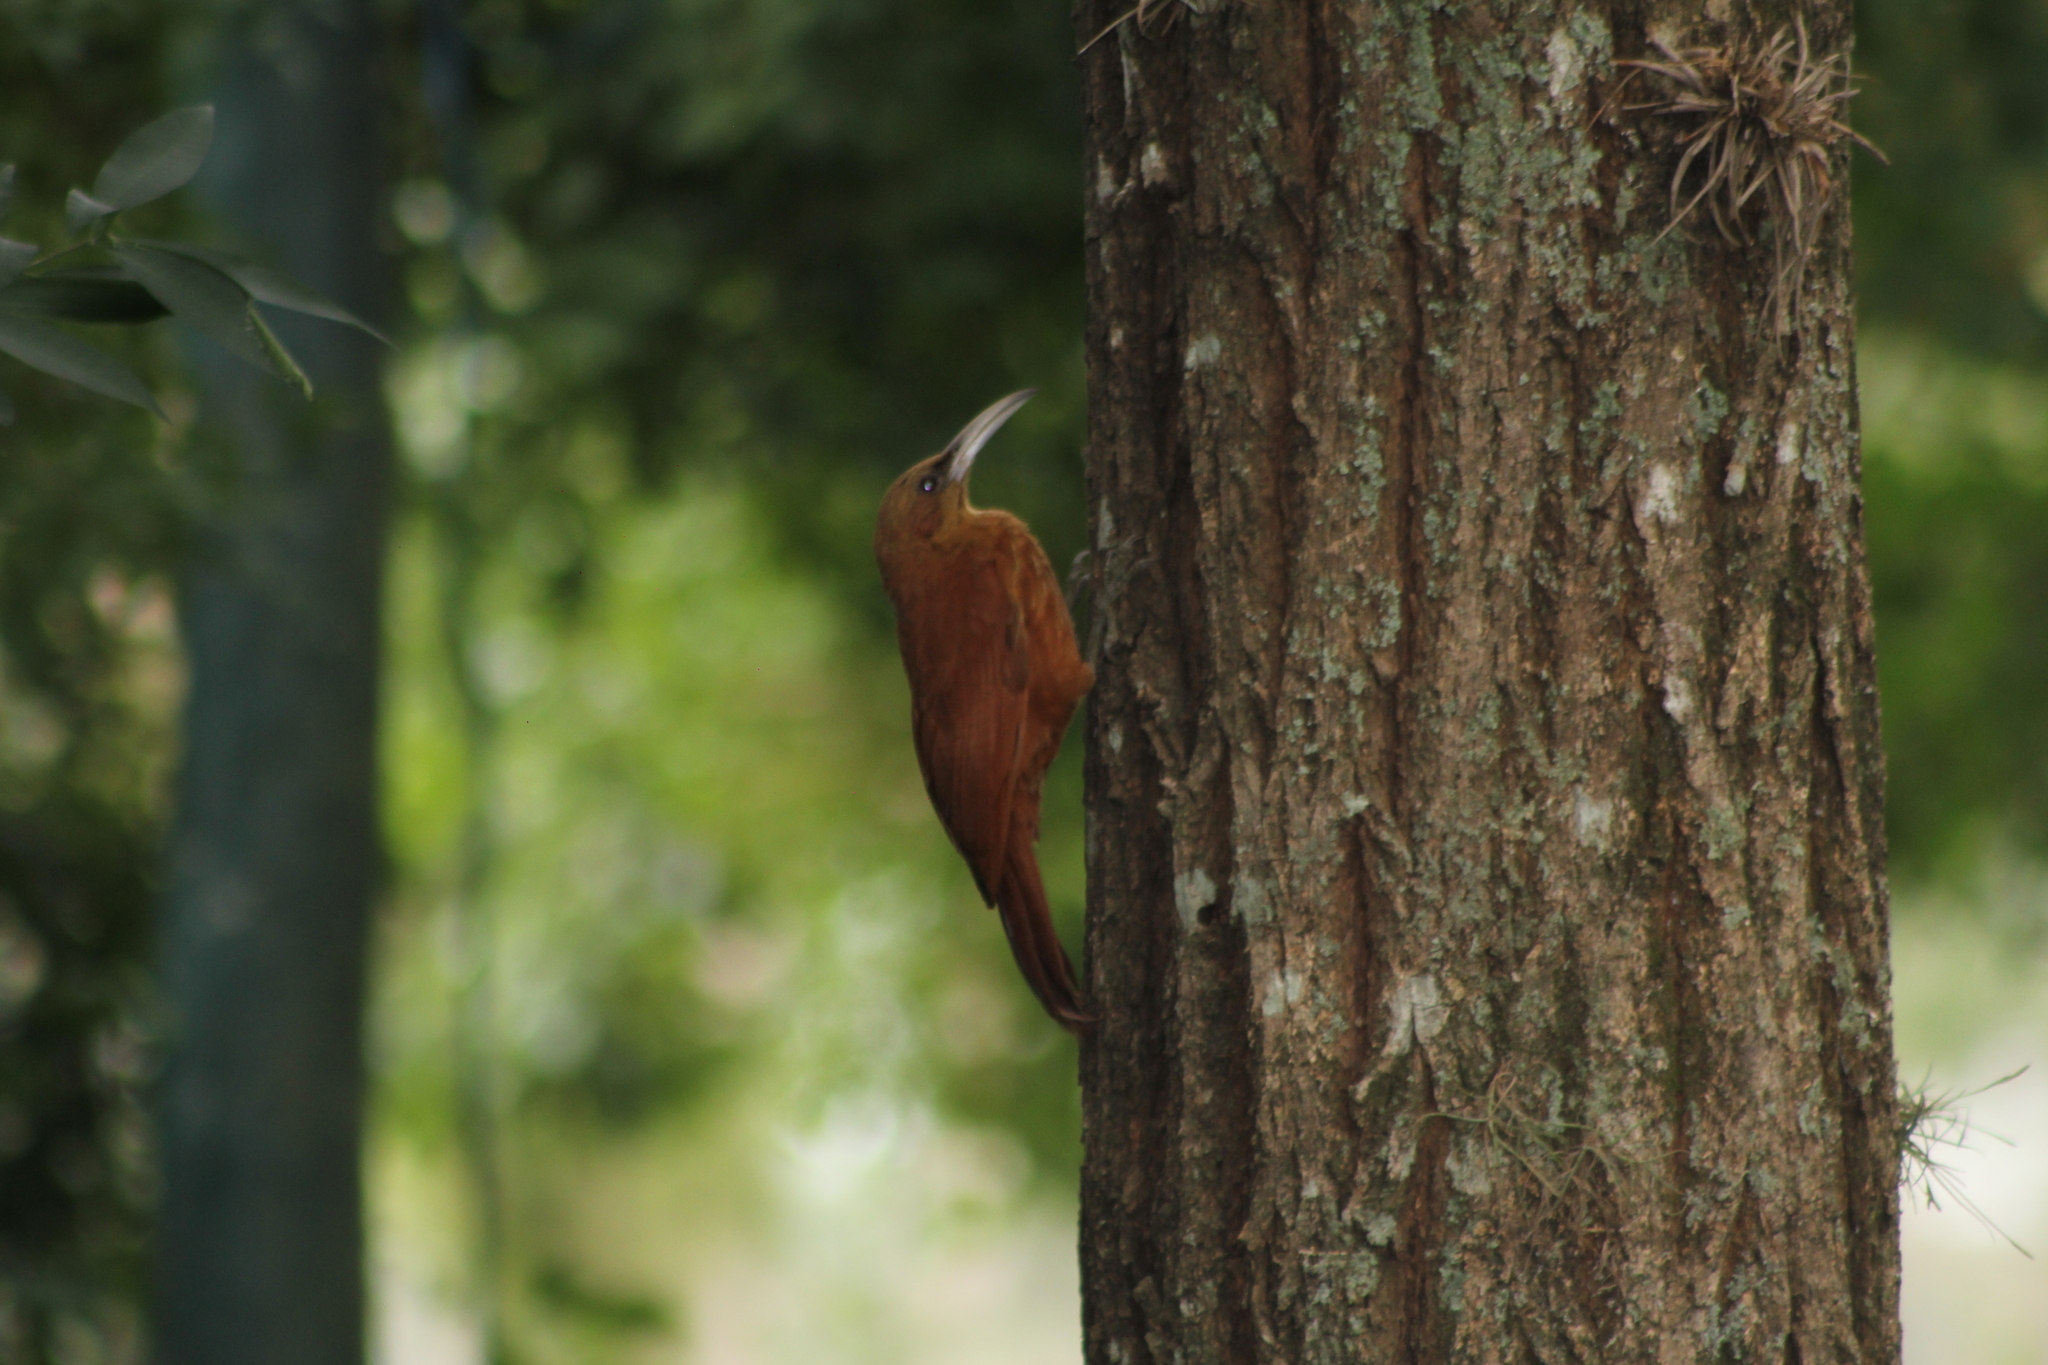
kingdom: Animalia
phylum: Chordata
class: Aves
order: Passeriformes
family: Furnariidae
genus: Xiphocolaptes
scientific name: Xiphocolaptes major
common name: Great rufous woodcreeper
